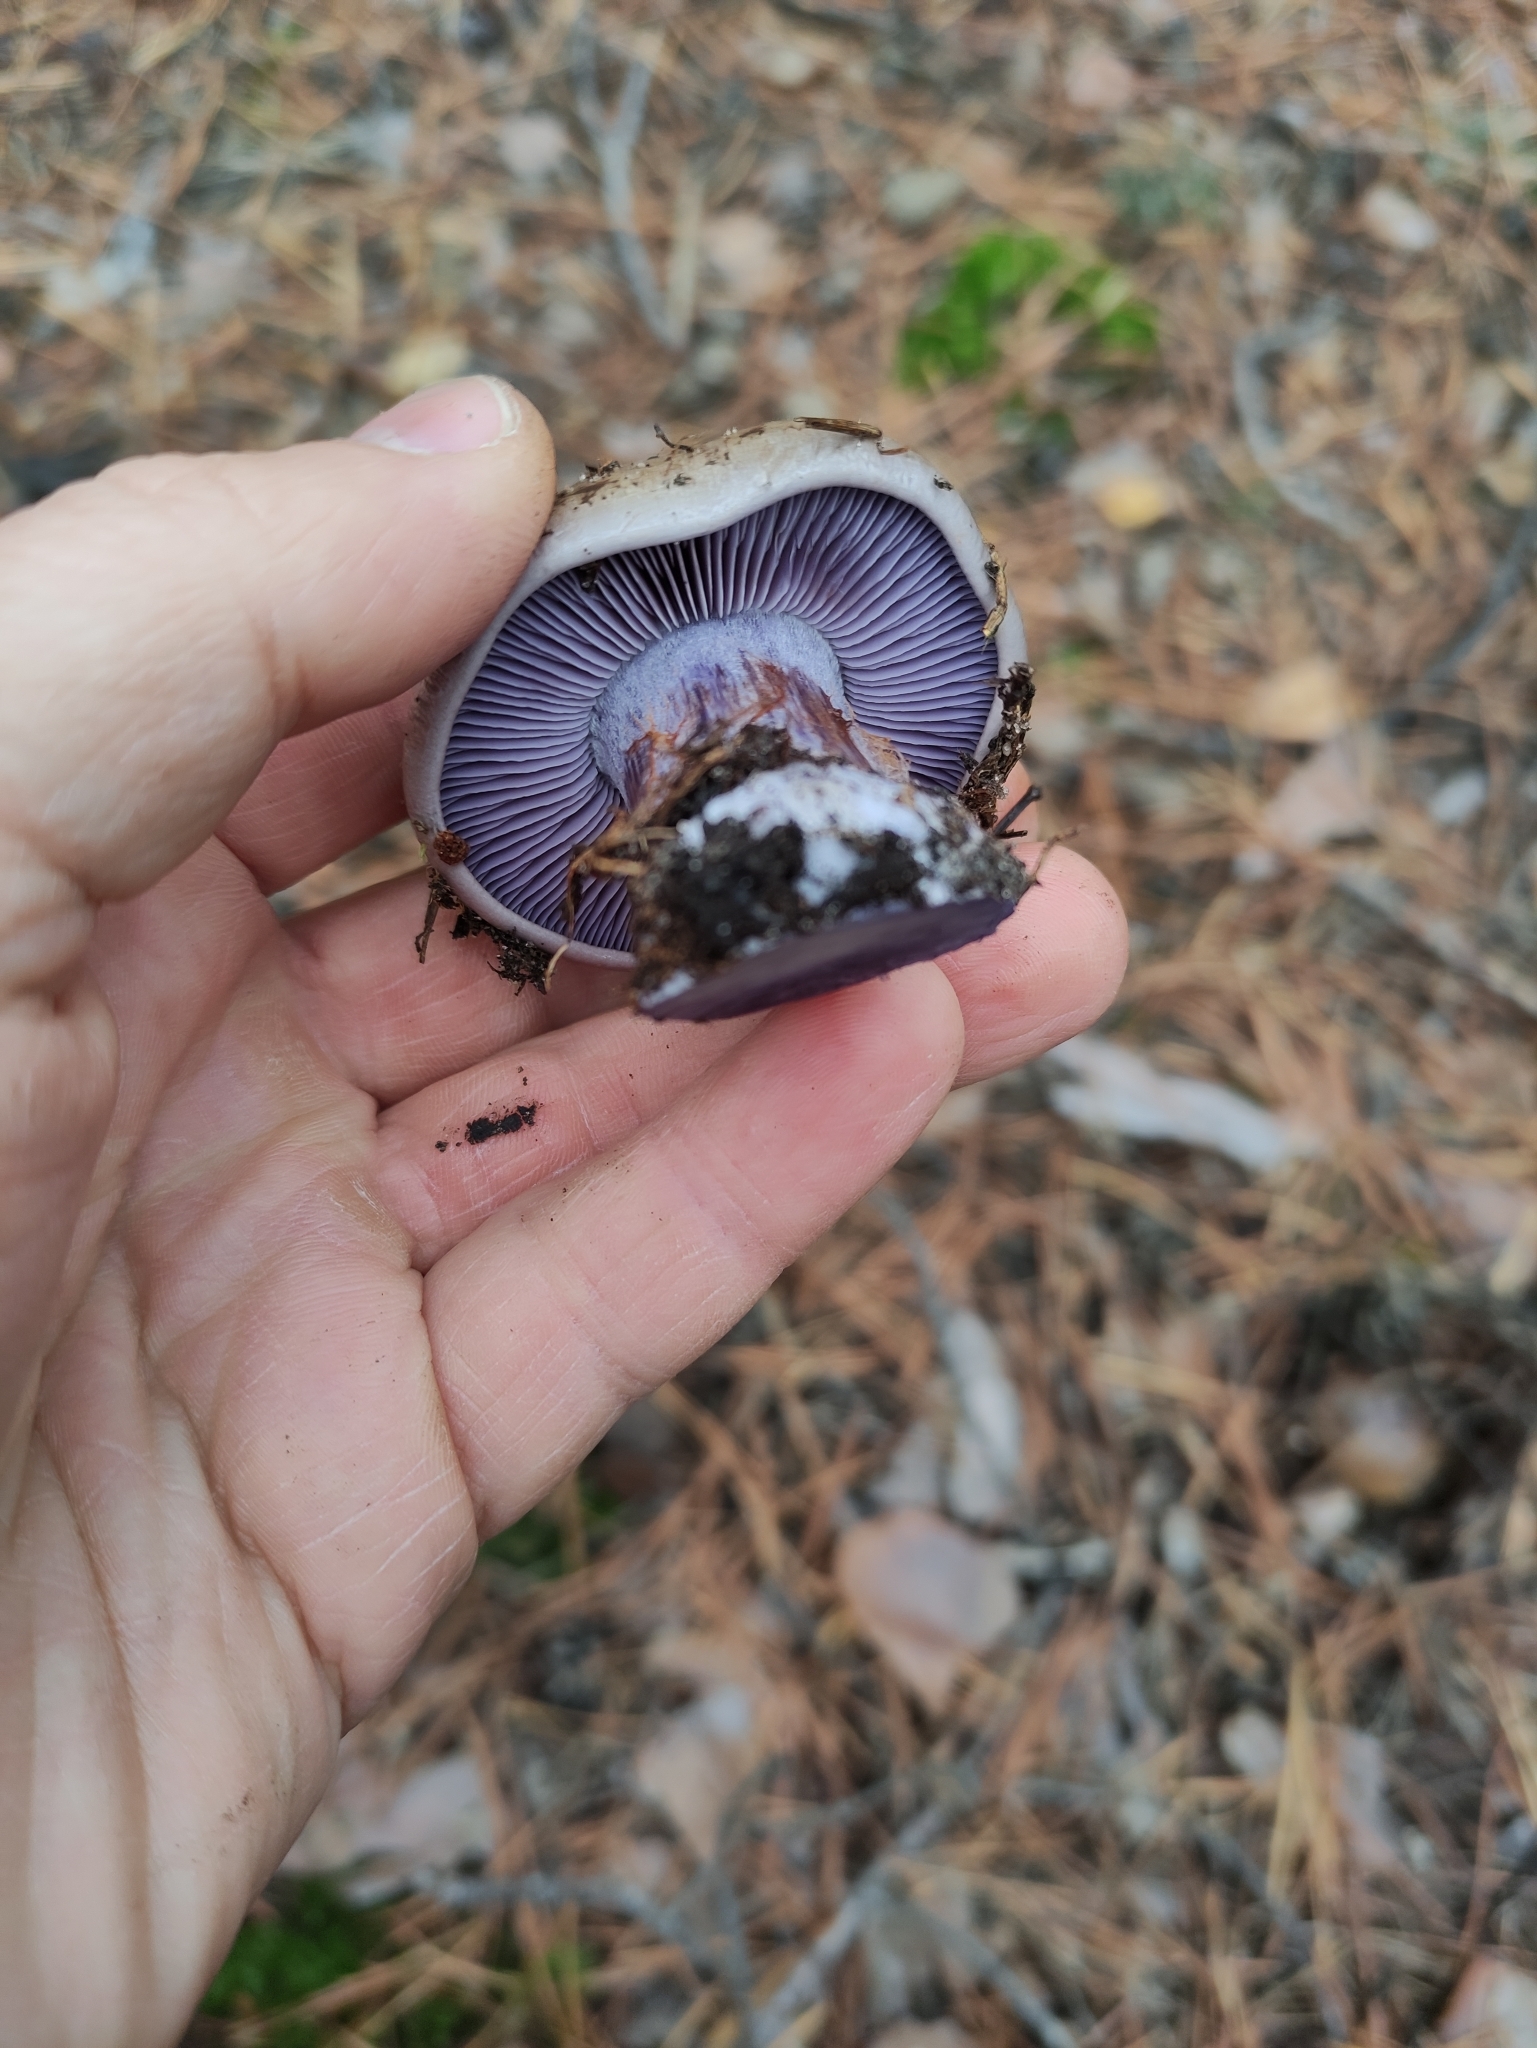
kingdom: Fungi
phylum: Basidiomycota
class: Agaricomycetes
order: Agaricales
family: Tricholomataceae
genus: Collybia
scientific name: Collybia
